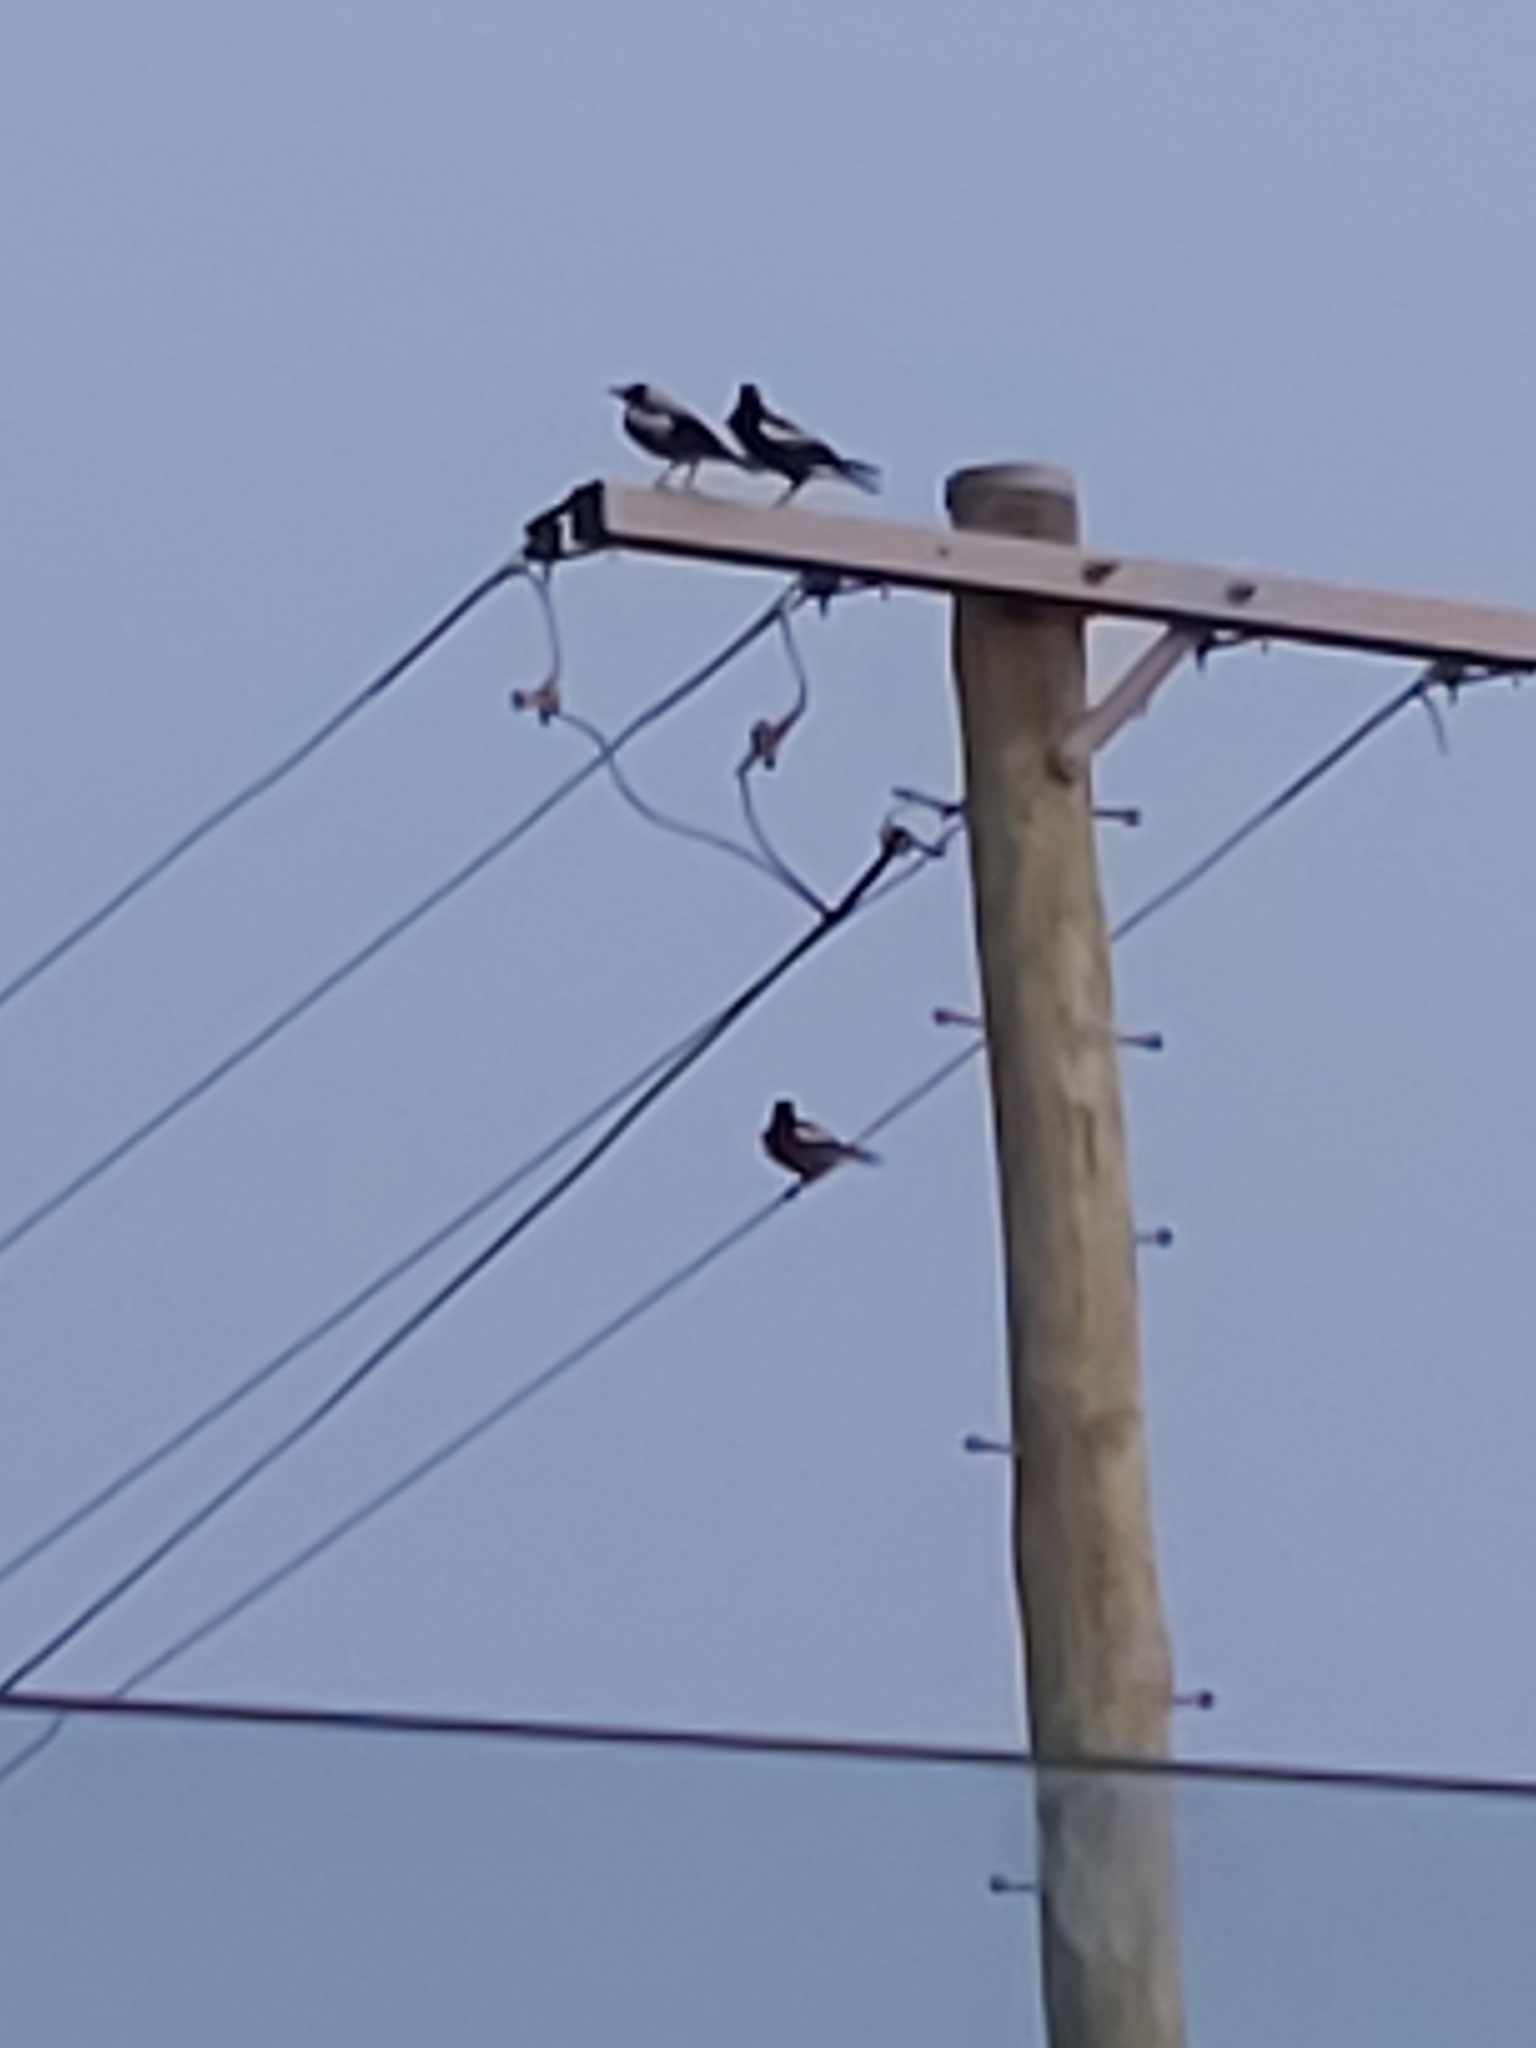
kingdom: Animalia
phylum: Chordata
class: Aves
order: Passeriformes
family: Cracticidae
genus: Gymnorhina
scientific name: Gymnorhina tibicen
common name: Australian magpie
